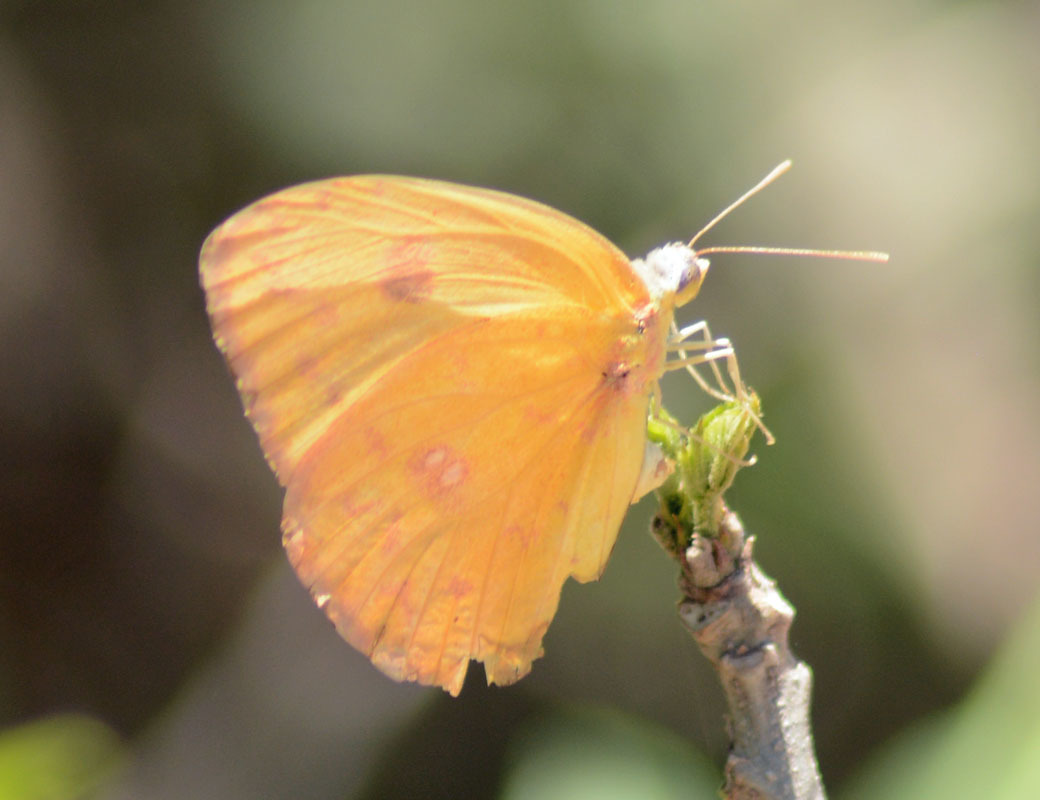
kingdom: Animalia
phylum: Arthropoda
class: Insecta
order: Lepidoptera
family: Pieridae
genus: Phoebis
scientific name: Phoebis marcellina
